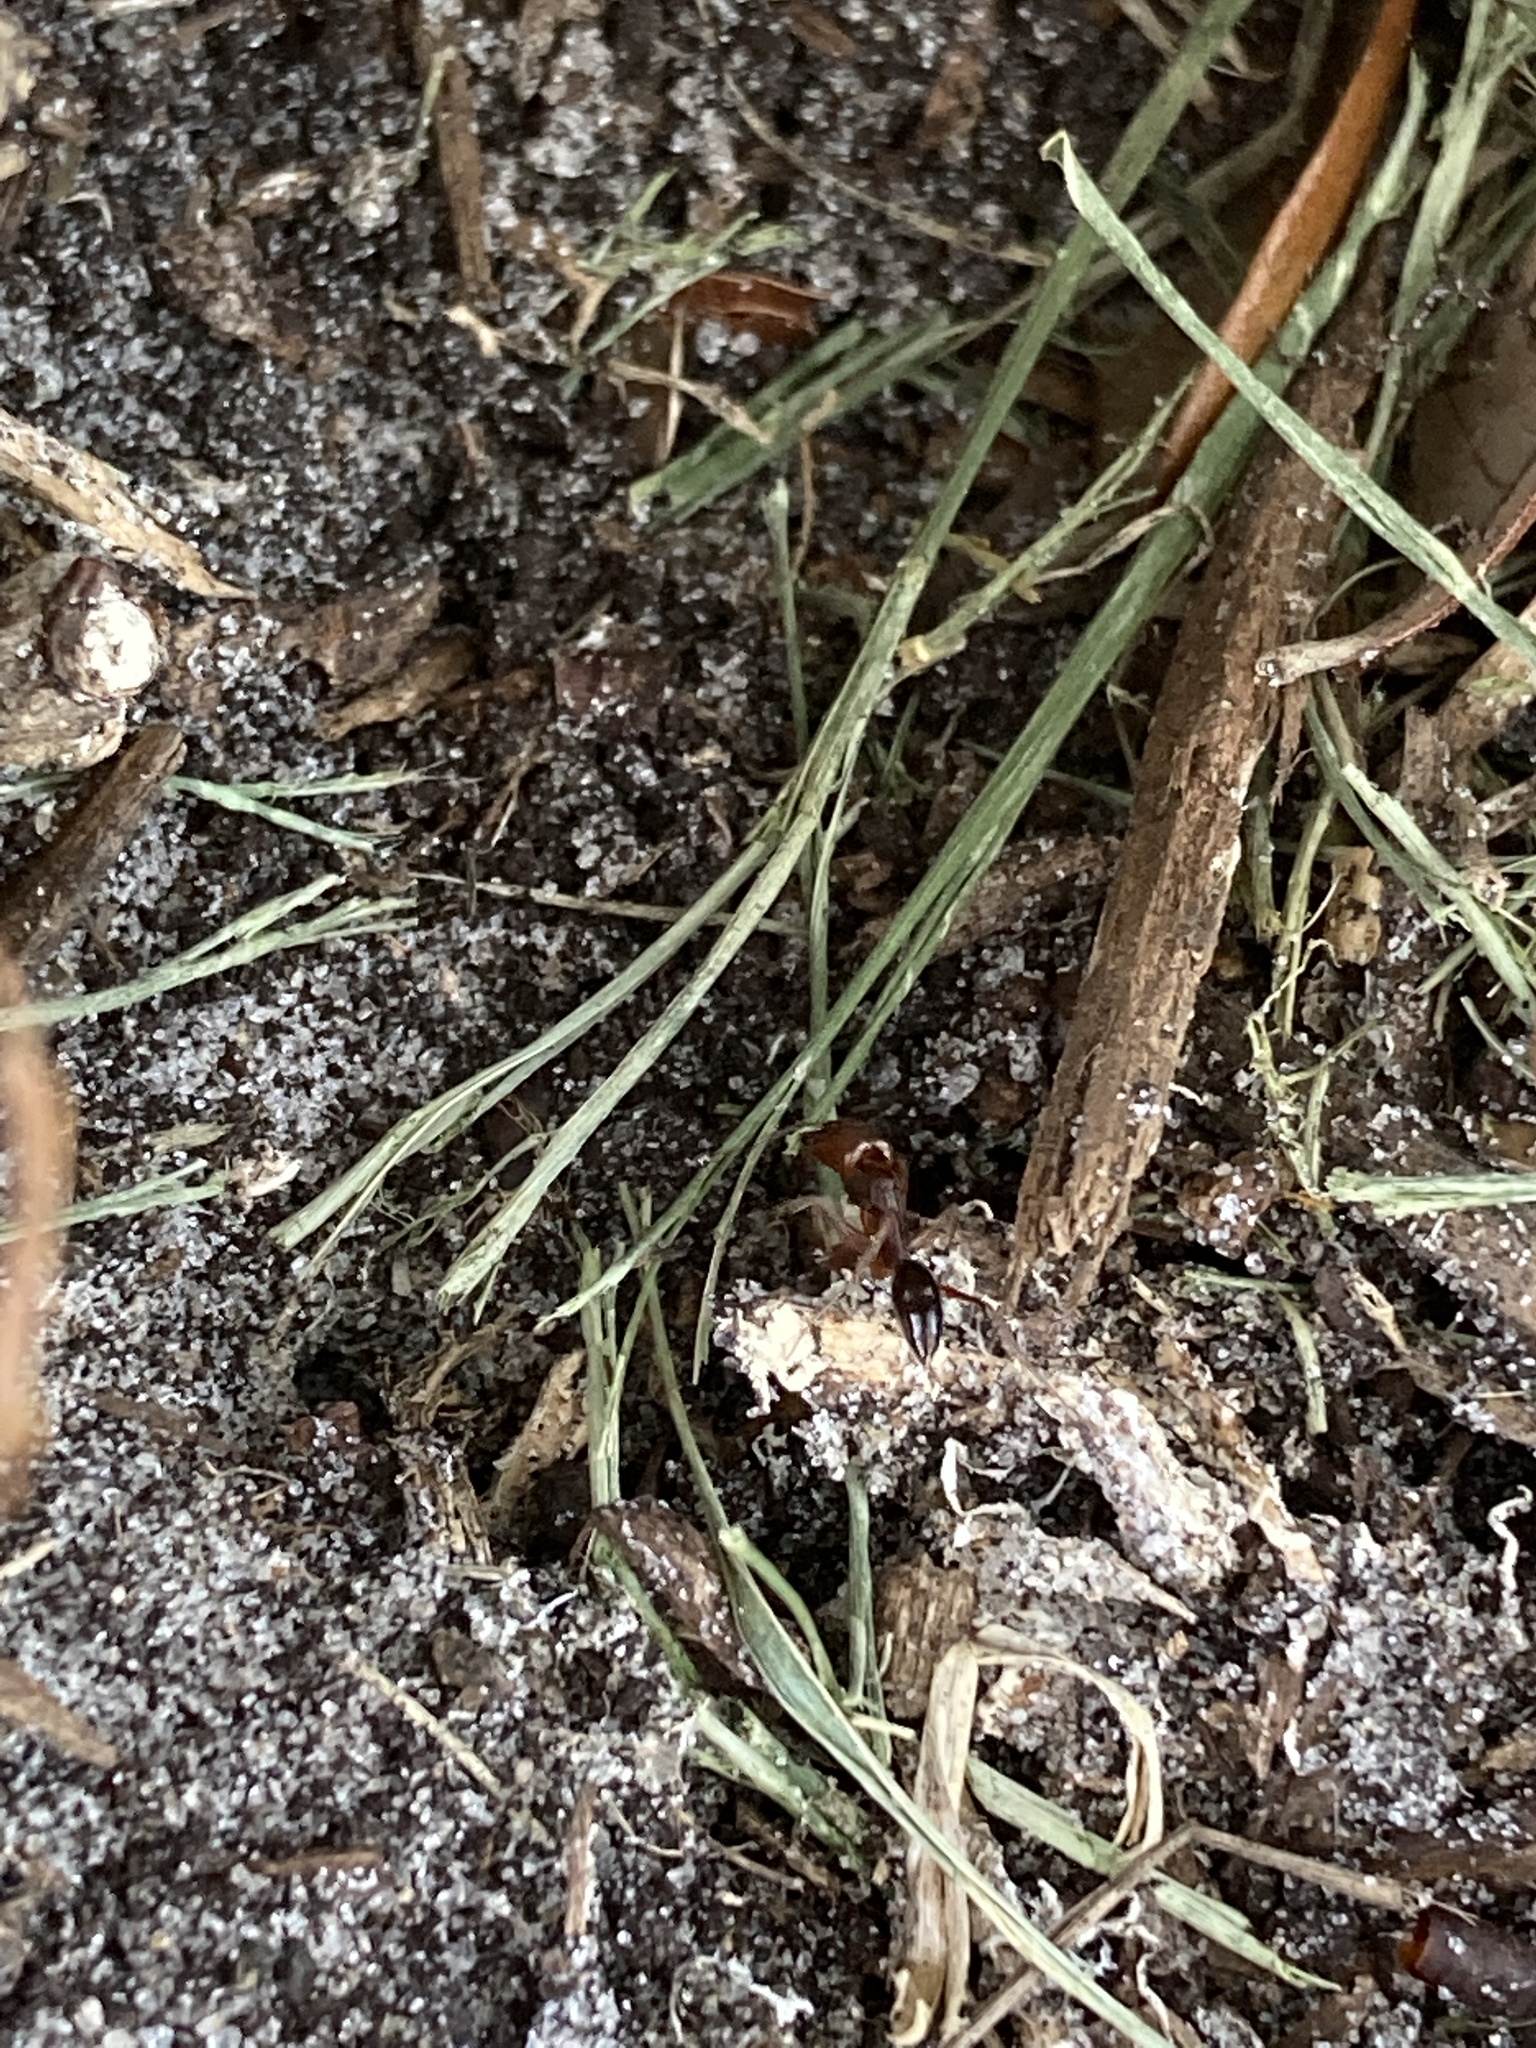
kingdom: Animalia
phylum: Arthropoda
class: Insecta
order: Hymenoptera
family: Formicidae
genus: Odontomachus
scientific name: Odontomachus ruginodis
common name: Trapjaw ant
